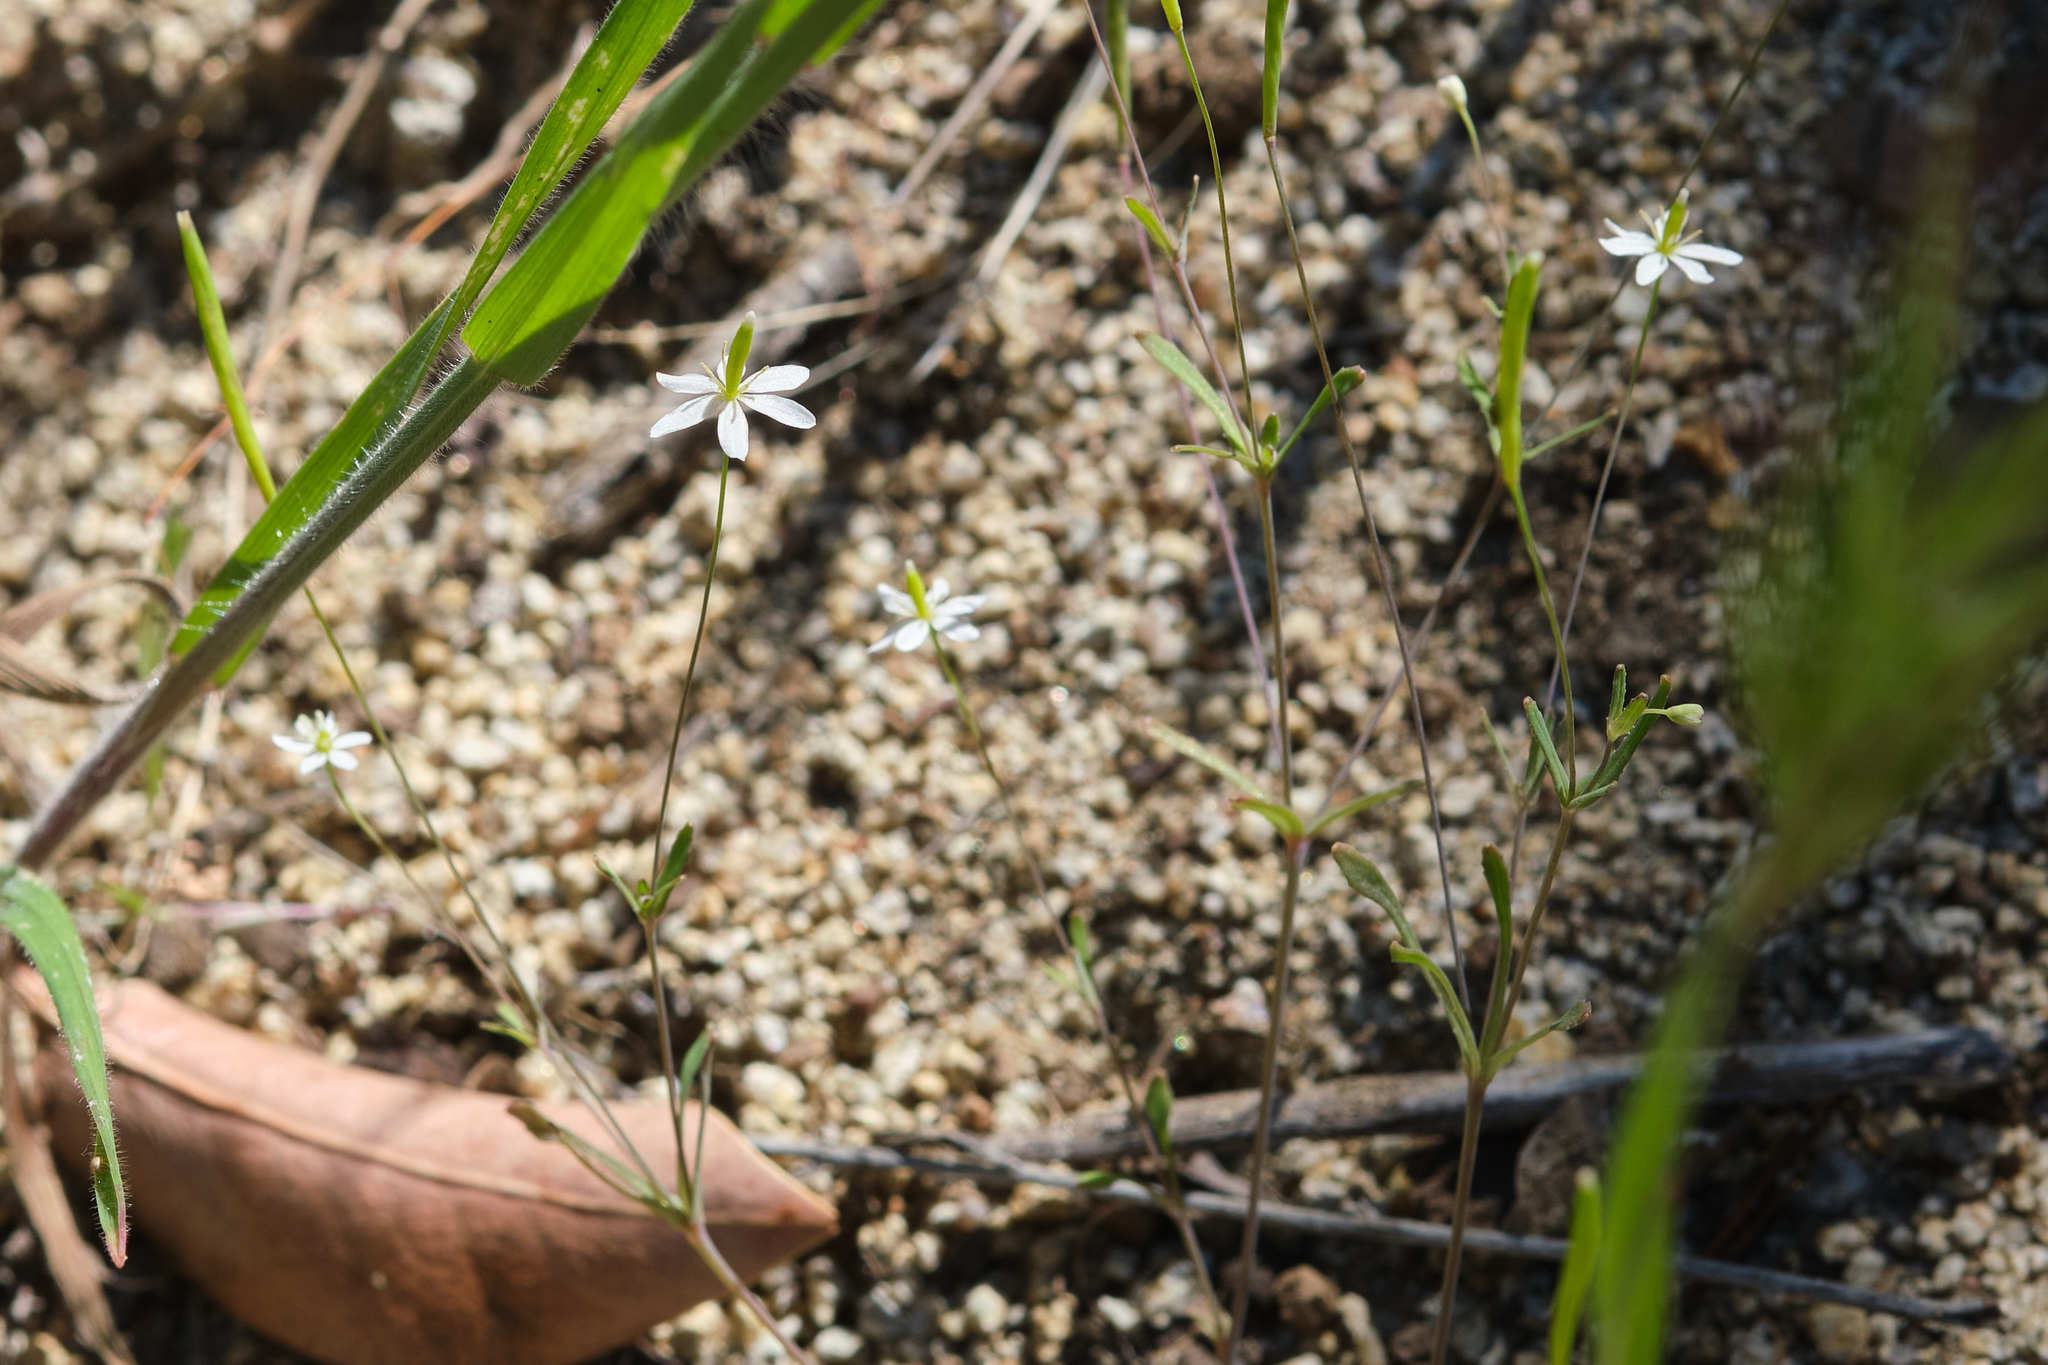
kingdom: Plantae
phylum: Tracheophyta
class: Magnoliopsida
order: Ranunculales
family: Papaveraceae
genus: Meconella
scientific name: Meconella denticulata
